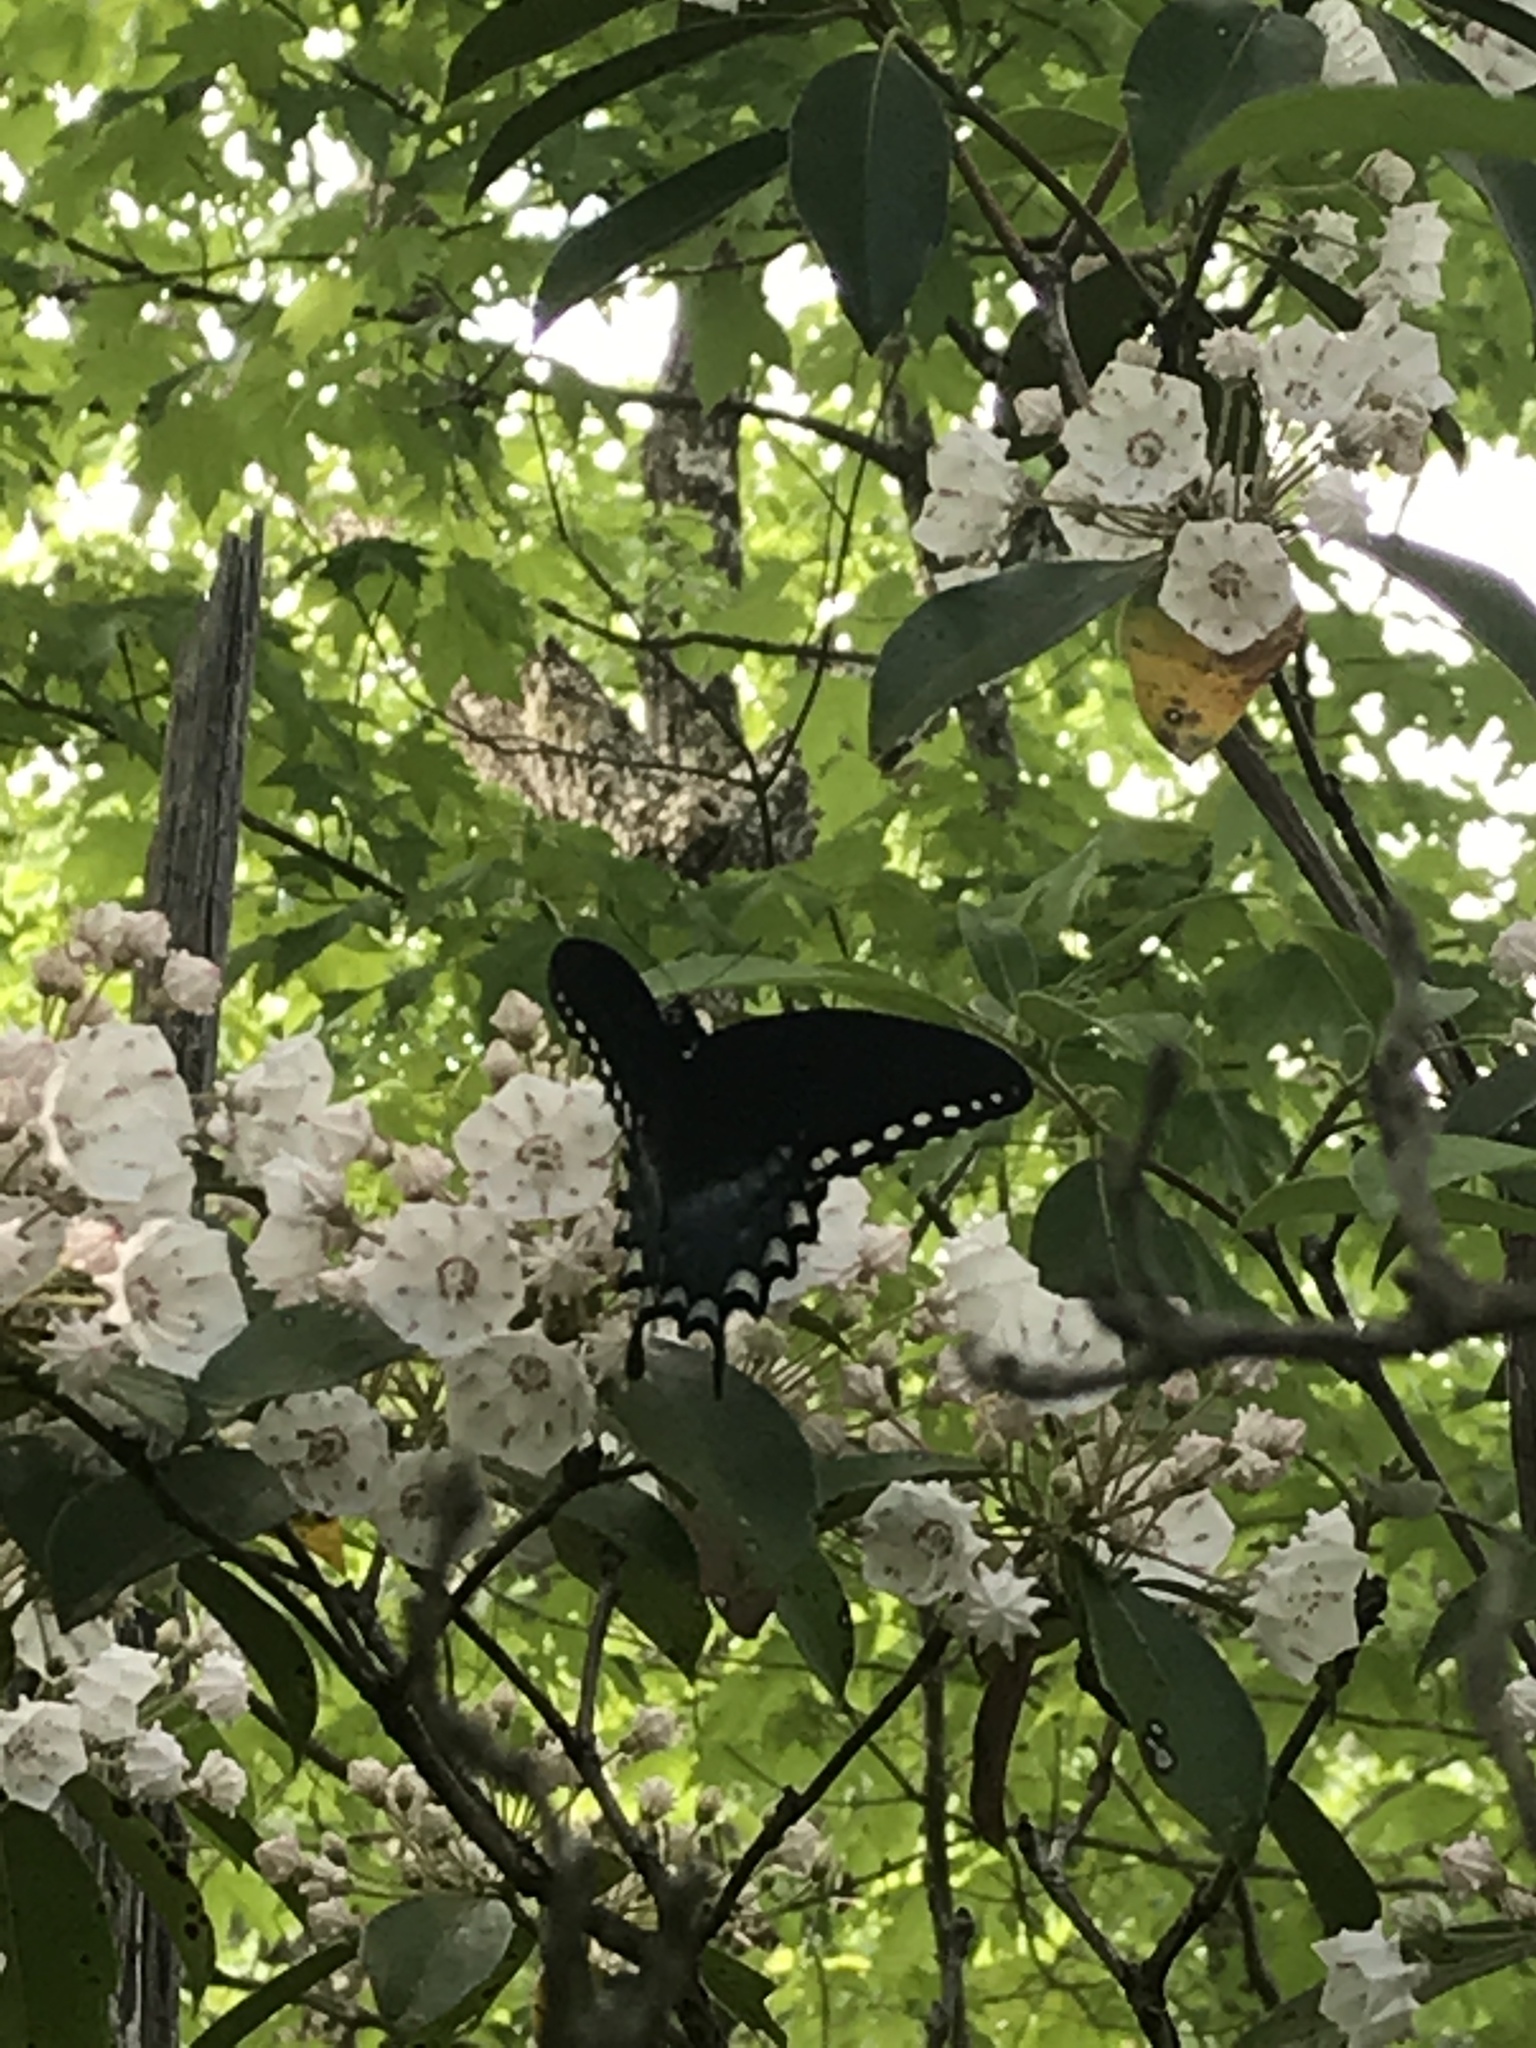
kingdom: Animalia
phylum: Arthropoda
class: Insecta
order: Lepidoptera
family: Papilionidae
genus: Papilio
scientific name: Papilio troilus
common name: Spicebush swallowtail
